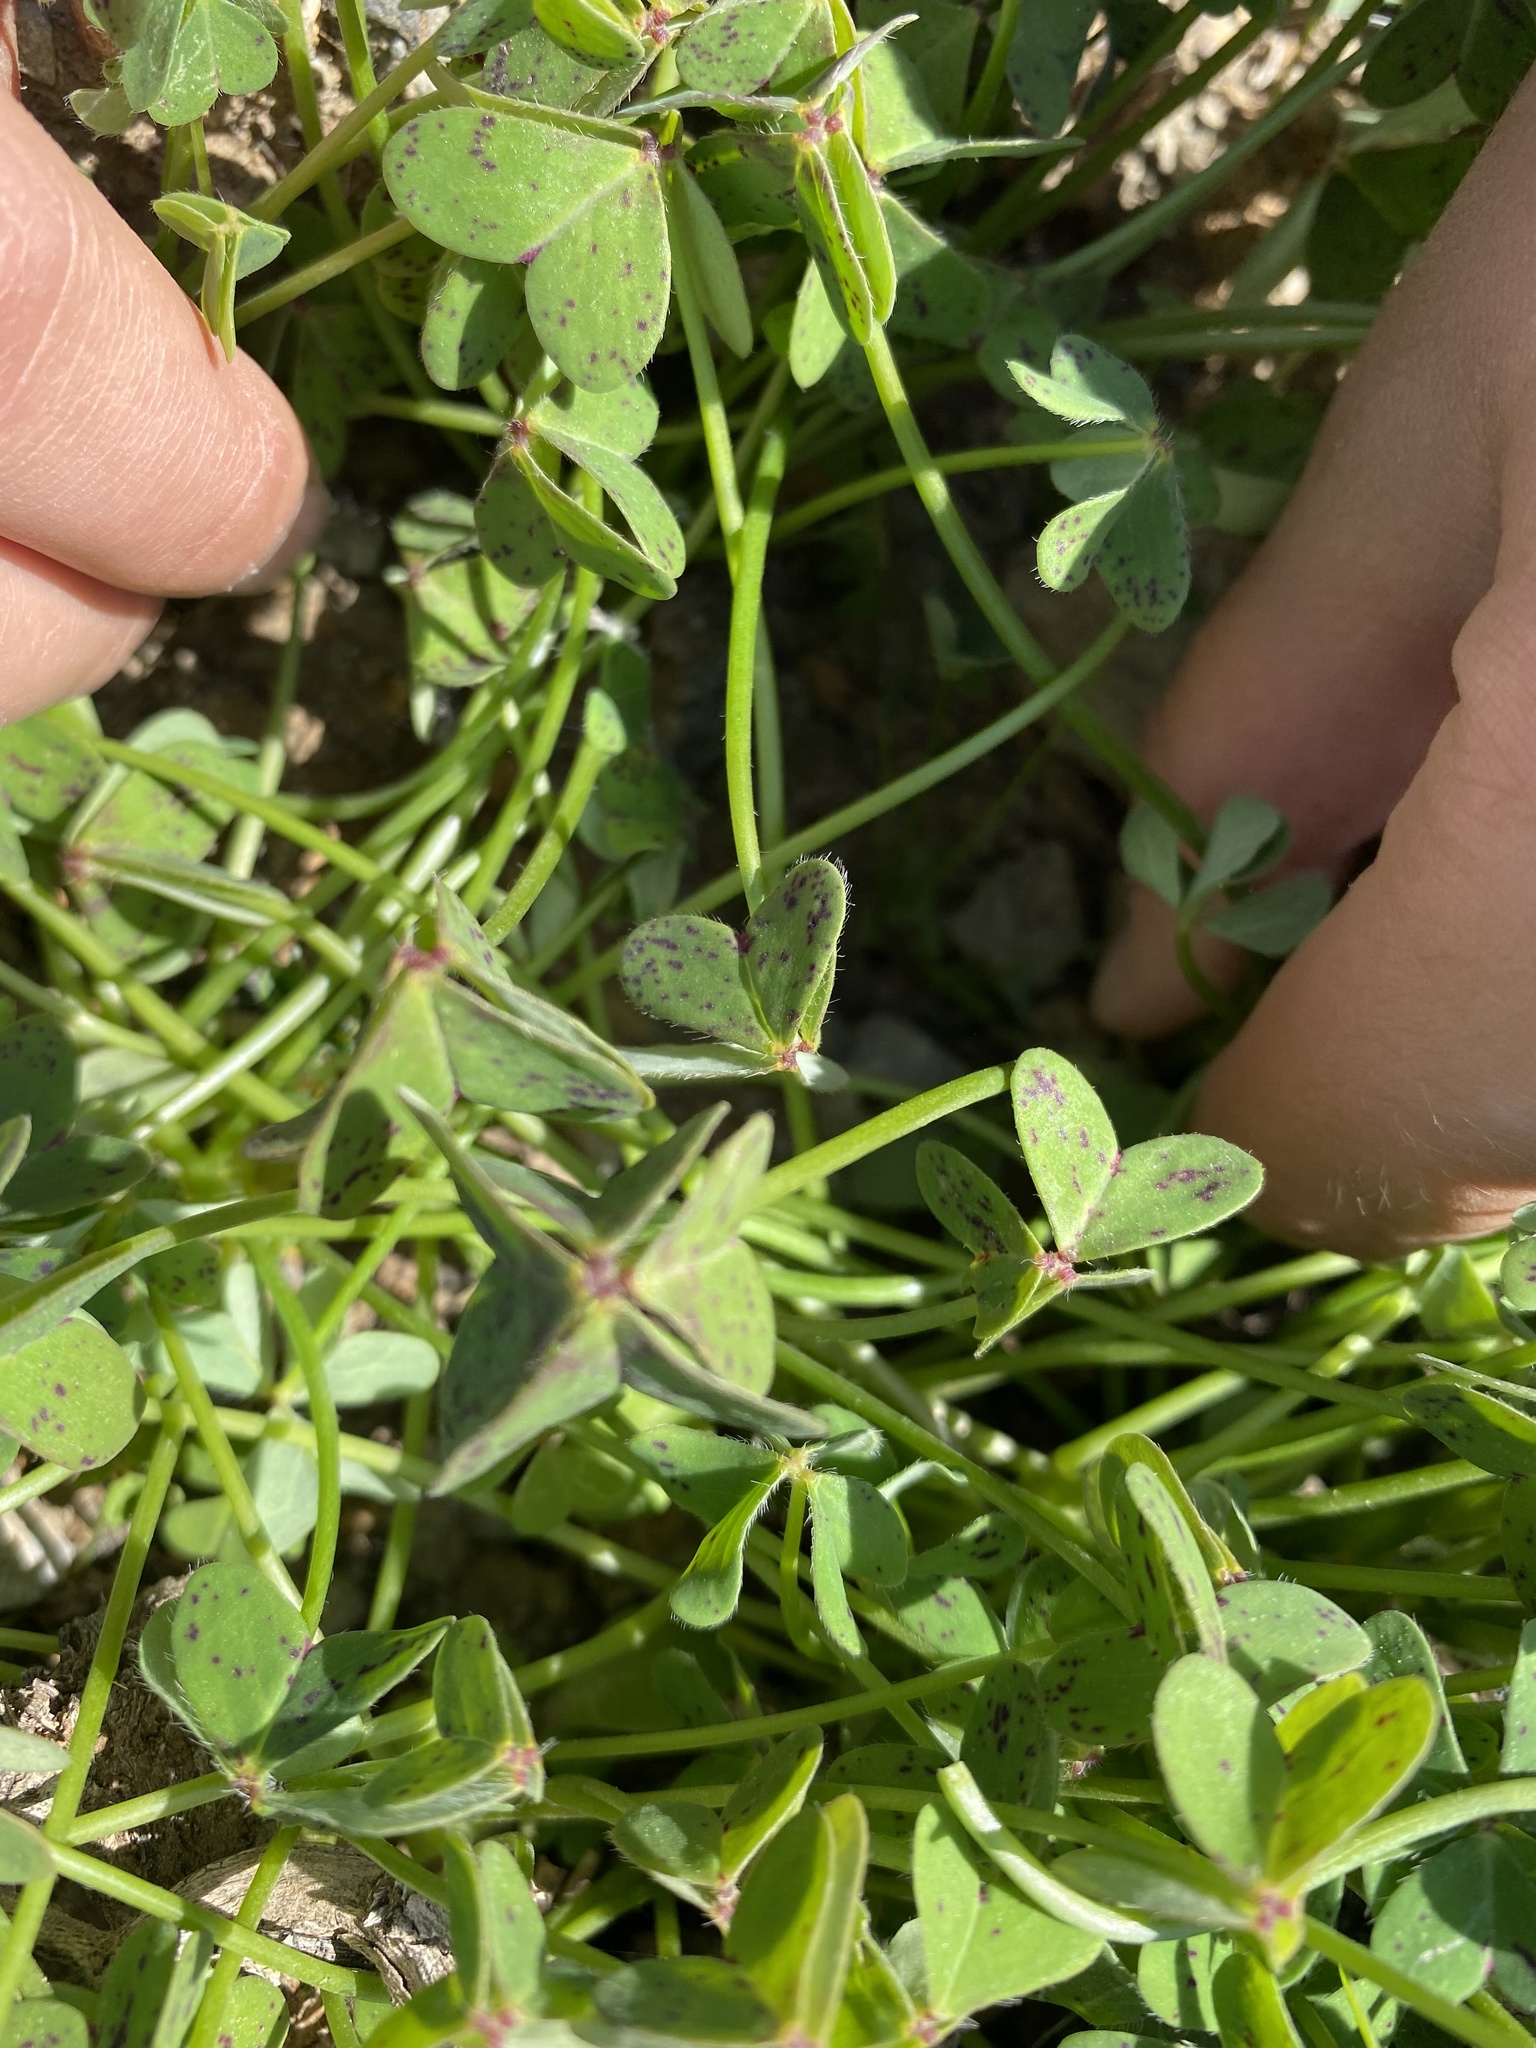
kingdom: Plantae
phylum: Tracheophyta
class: Magnoliopsida
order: Oxalidales
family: Oxalidaceae
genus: Oxalis
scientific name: Oxalis pes-caprae
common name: Bermuda-buttercup
